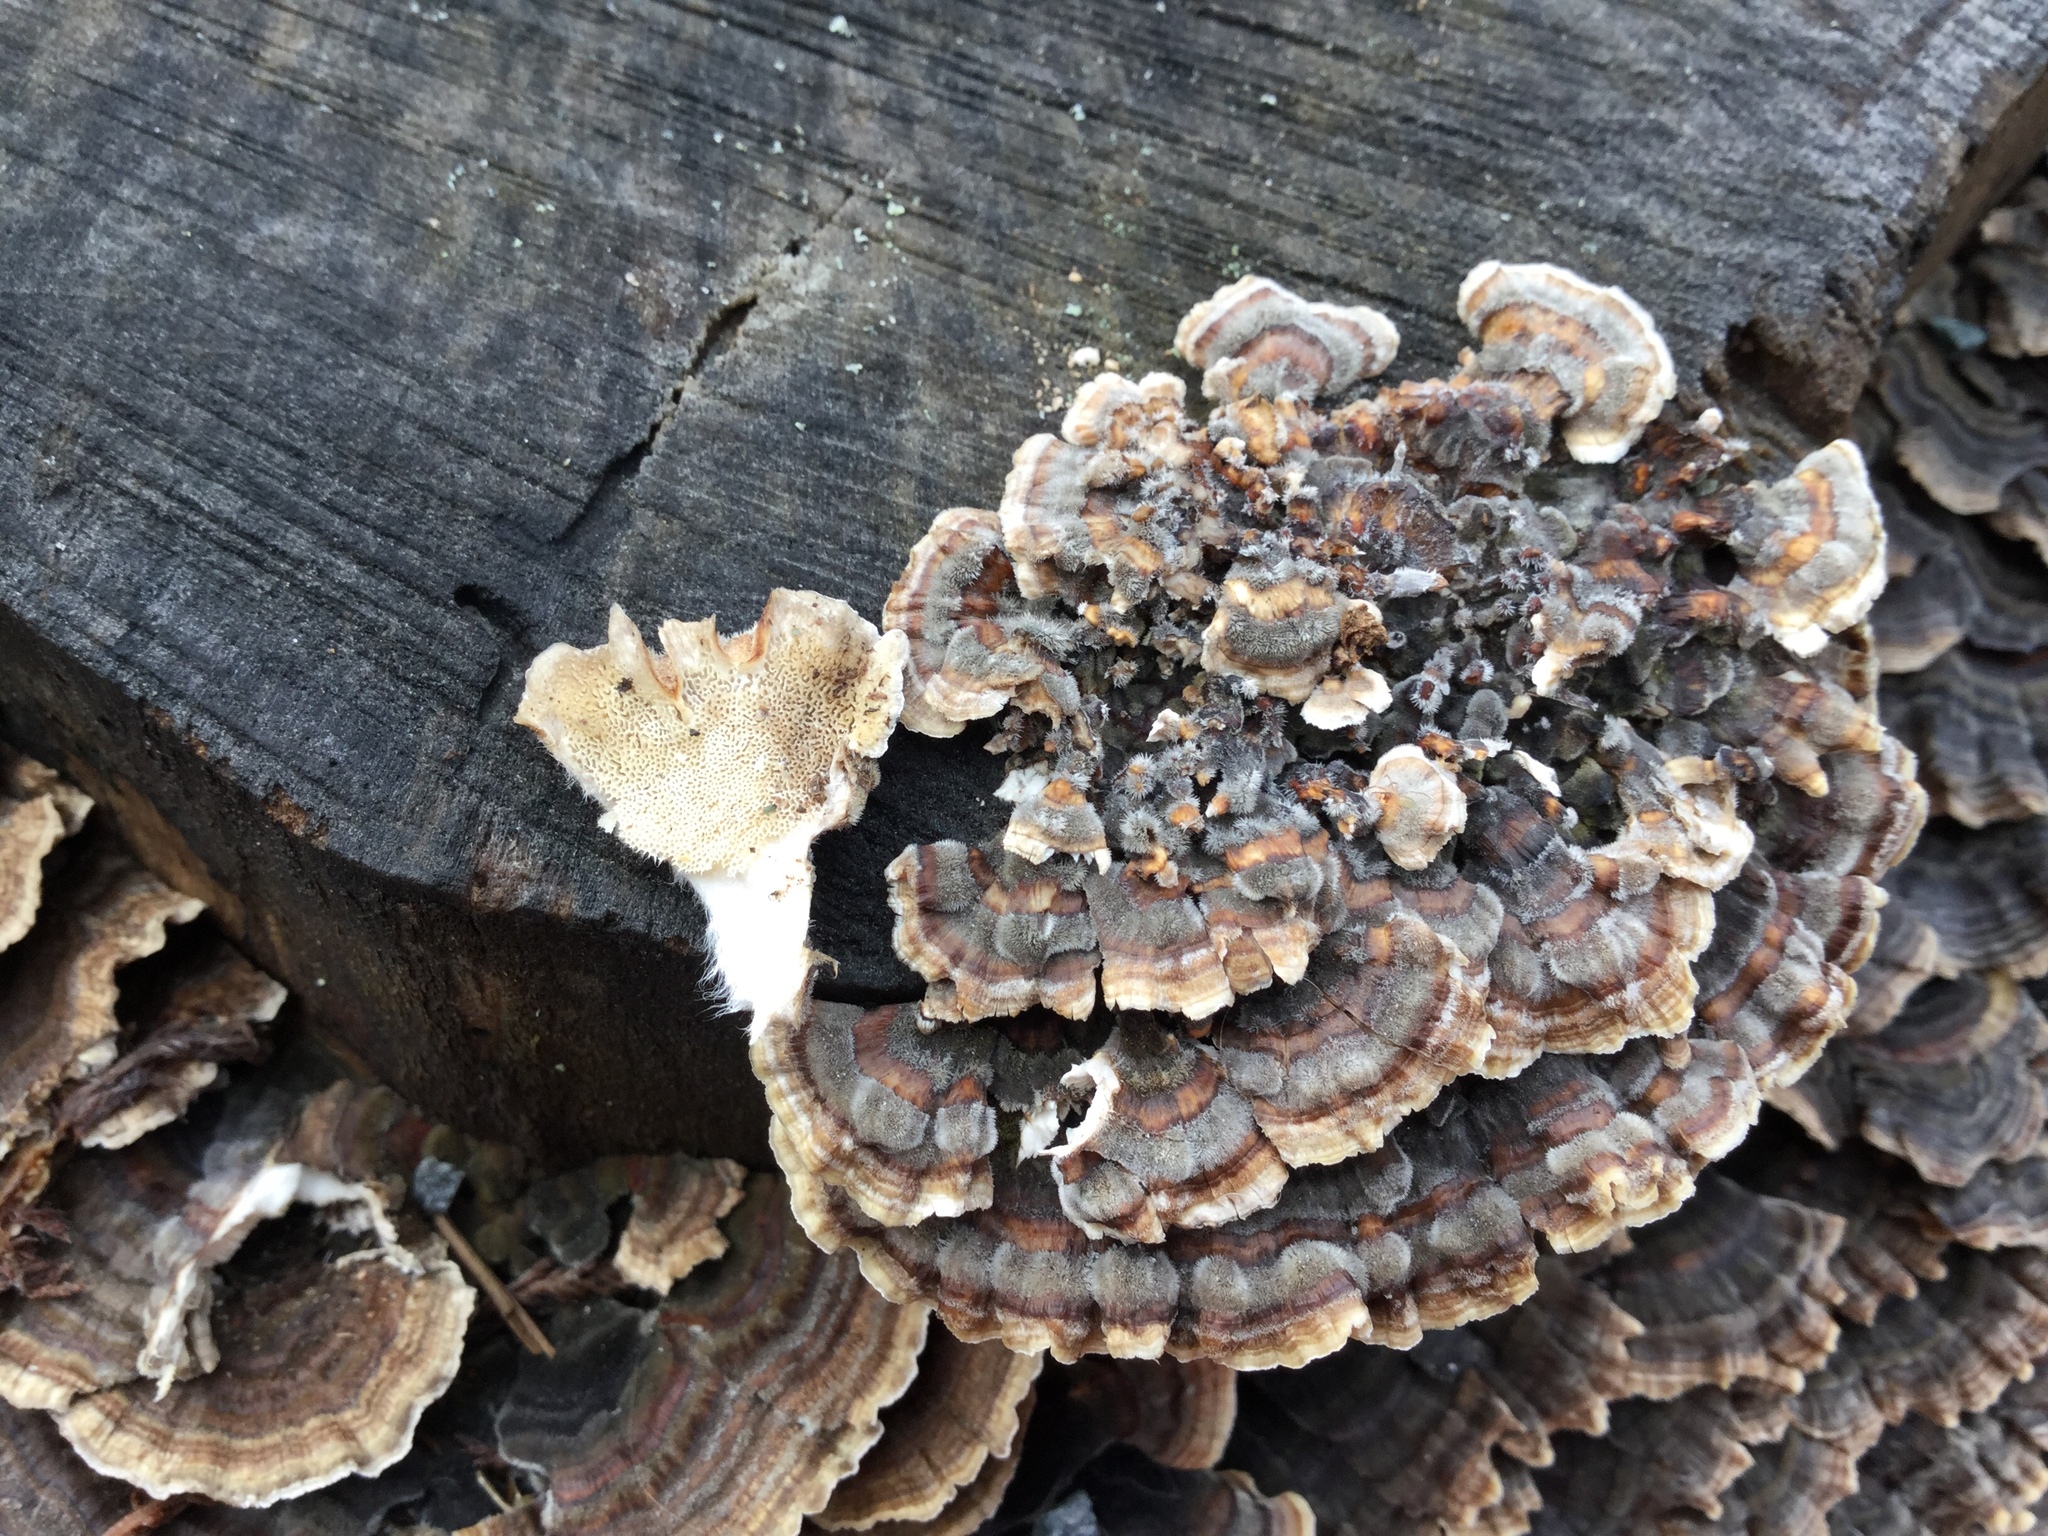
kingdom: Fungi
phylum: Basidiomycota
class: Agaricomycetes
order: Polyporales
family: Polyporaceae
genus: Trametes
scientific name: Trametes versicolor
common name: Turkeytail
